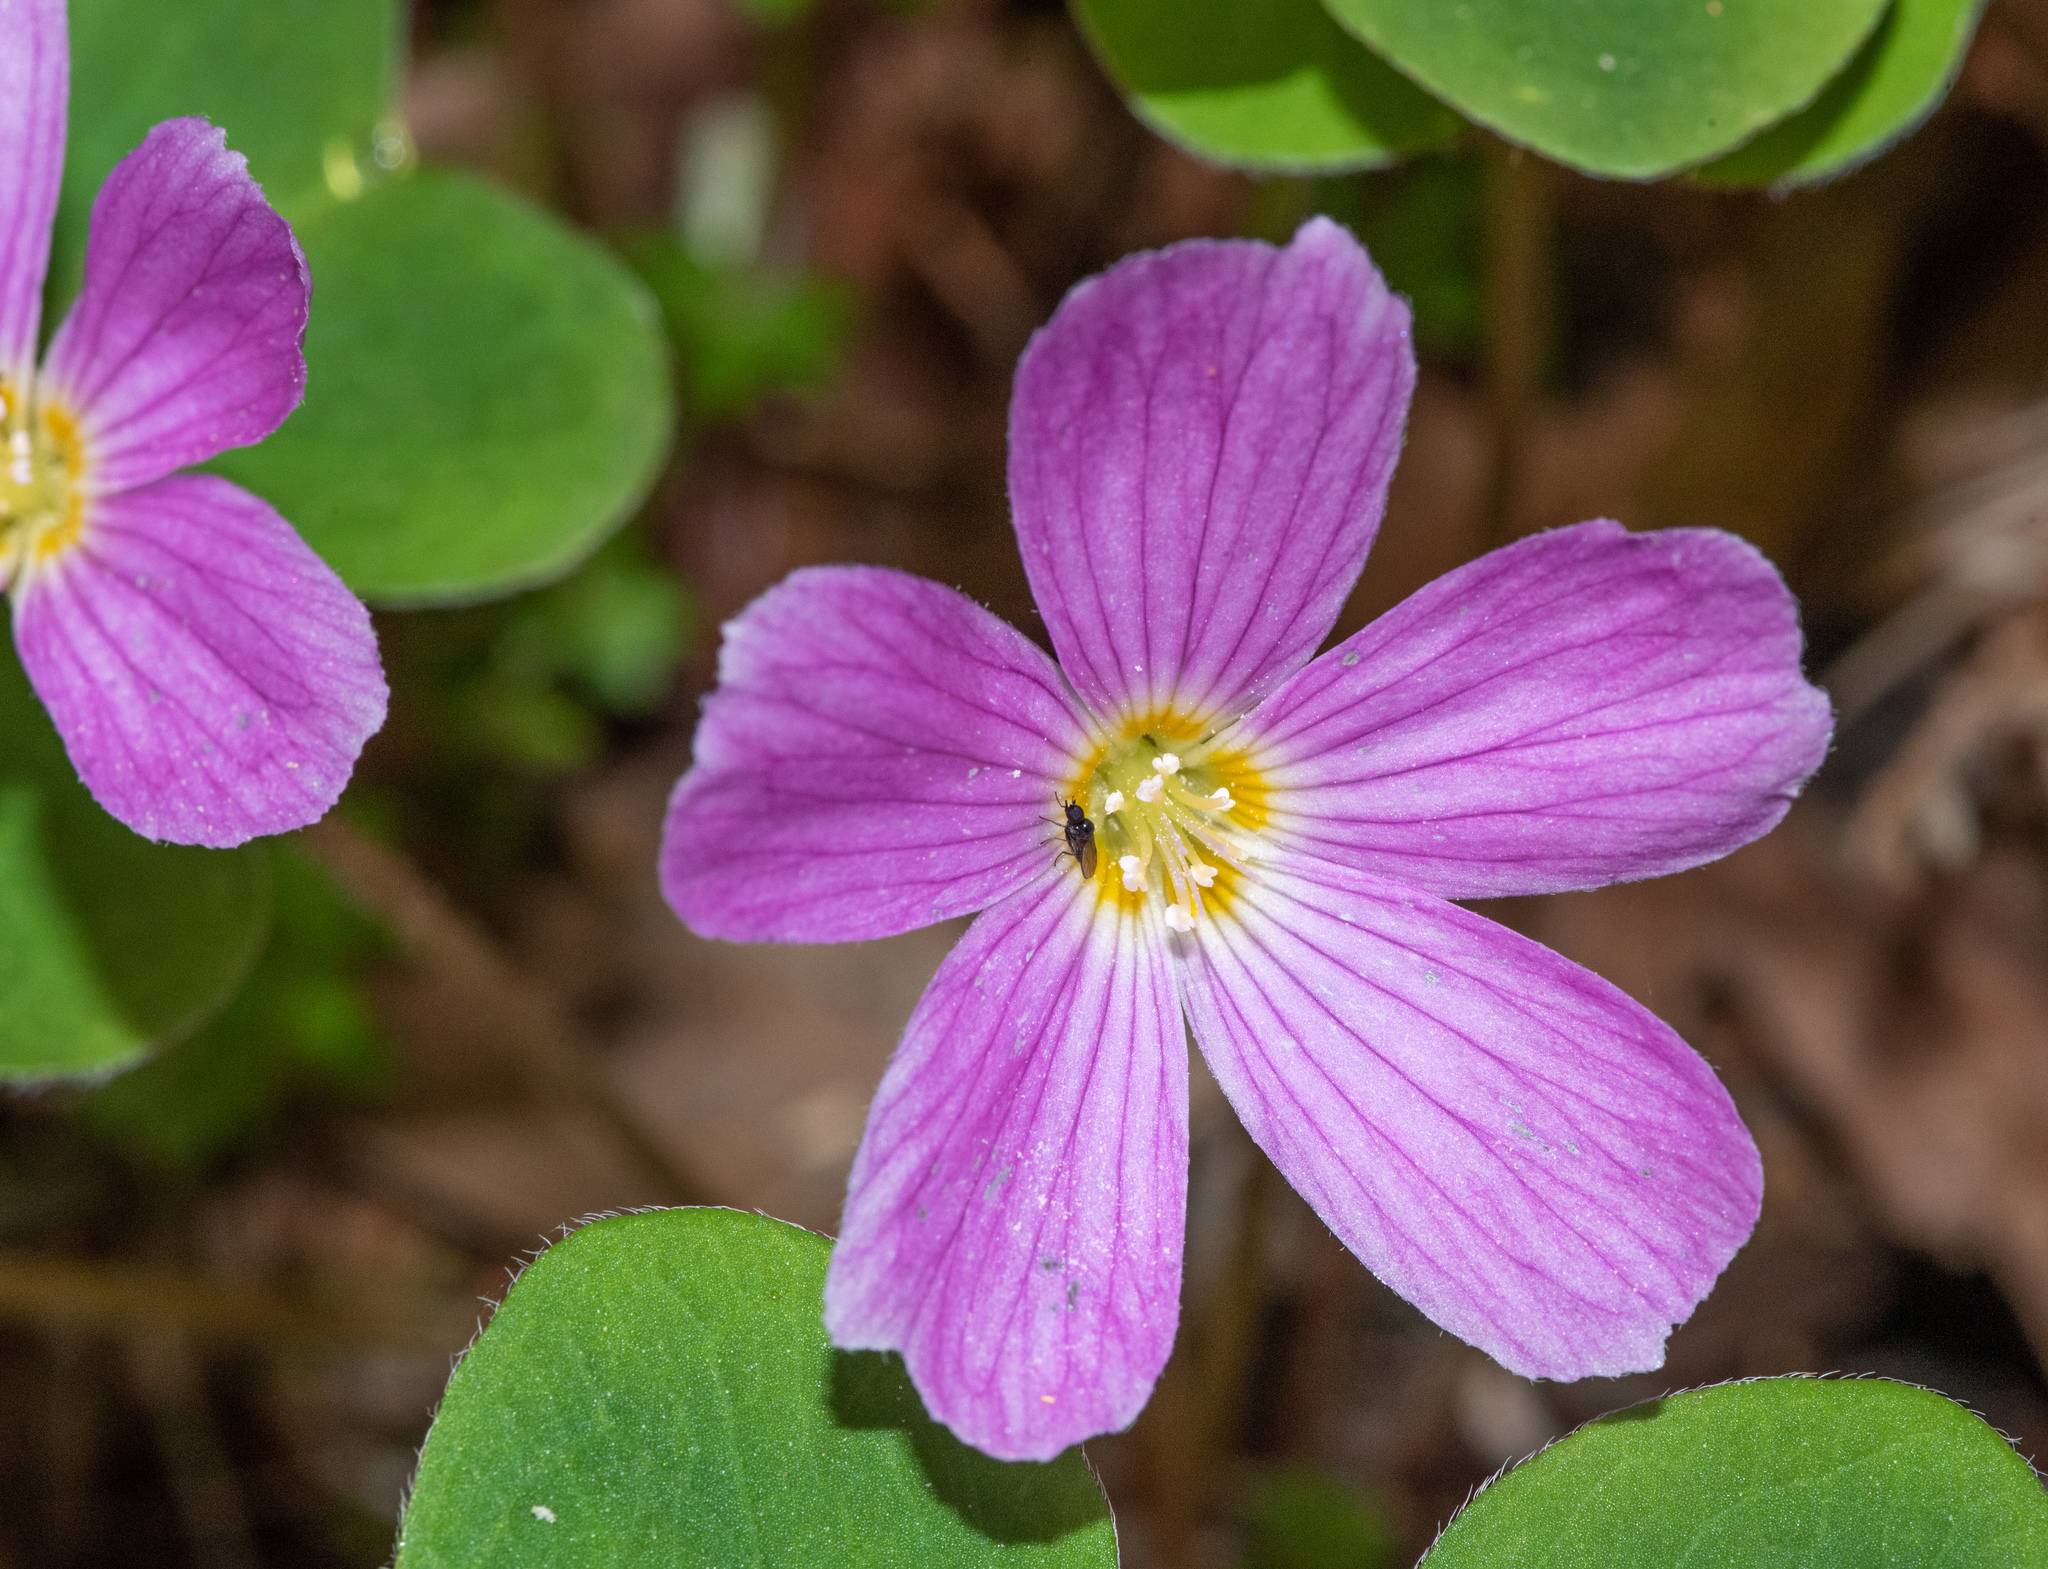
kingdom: Plantae
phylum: Tracheophyta
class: Magnoliopsida
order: Oxalidales
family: Oxalidaceae
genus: Oxalis
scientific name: Oxalis oregana
